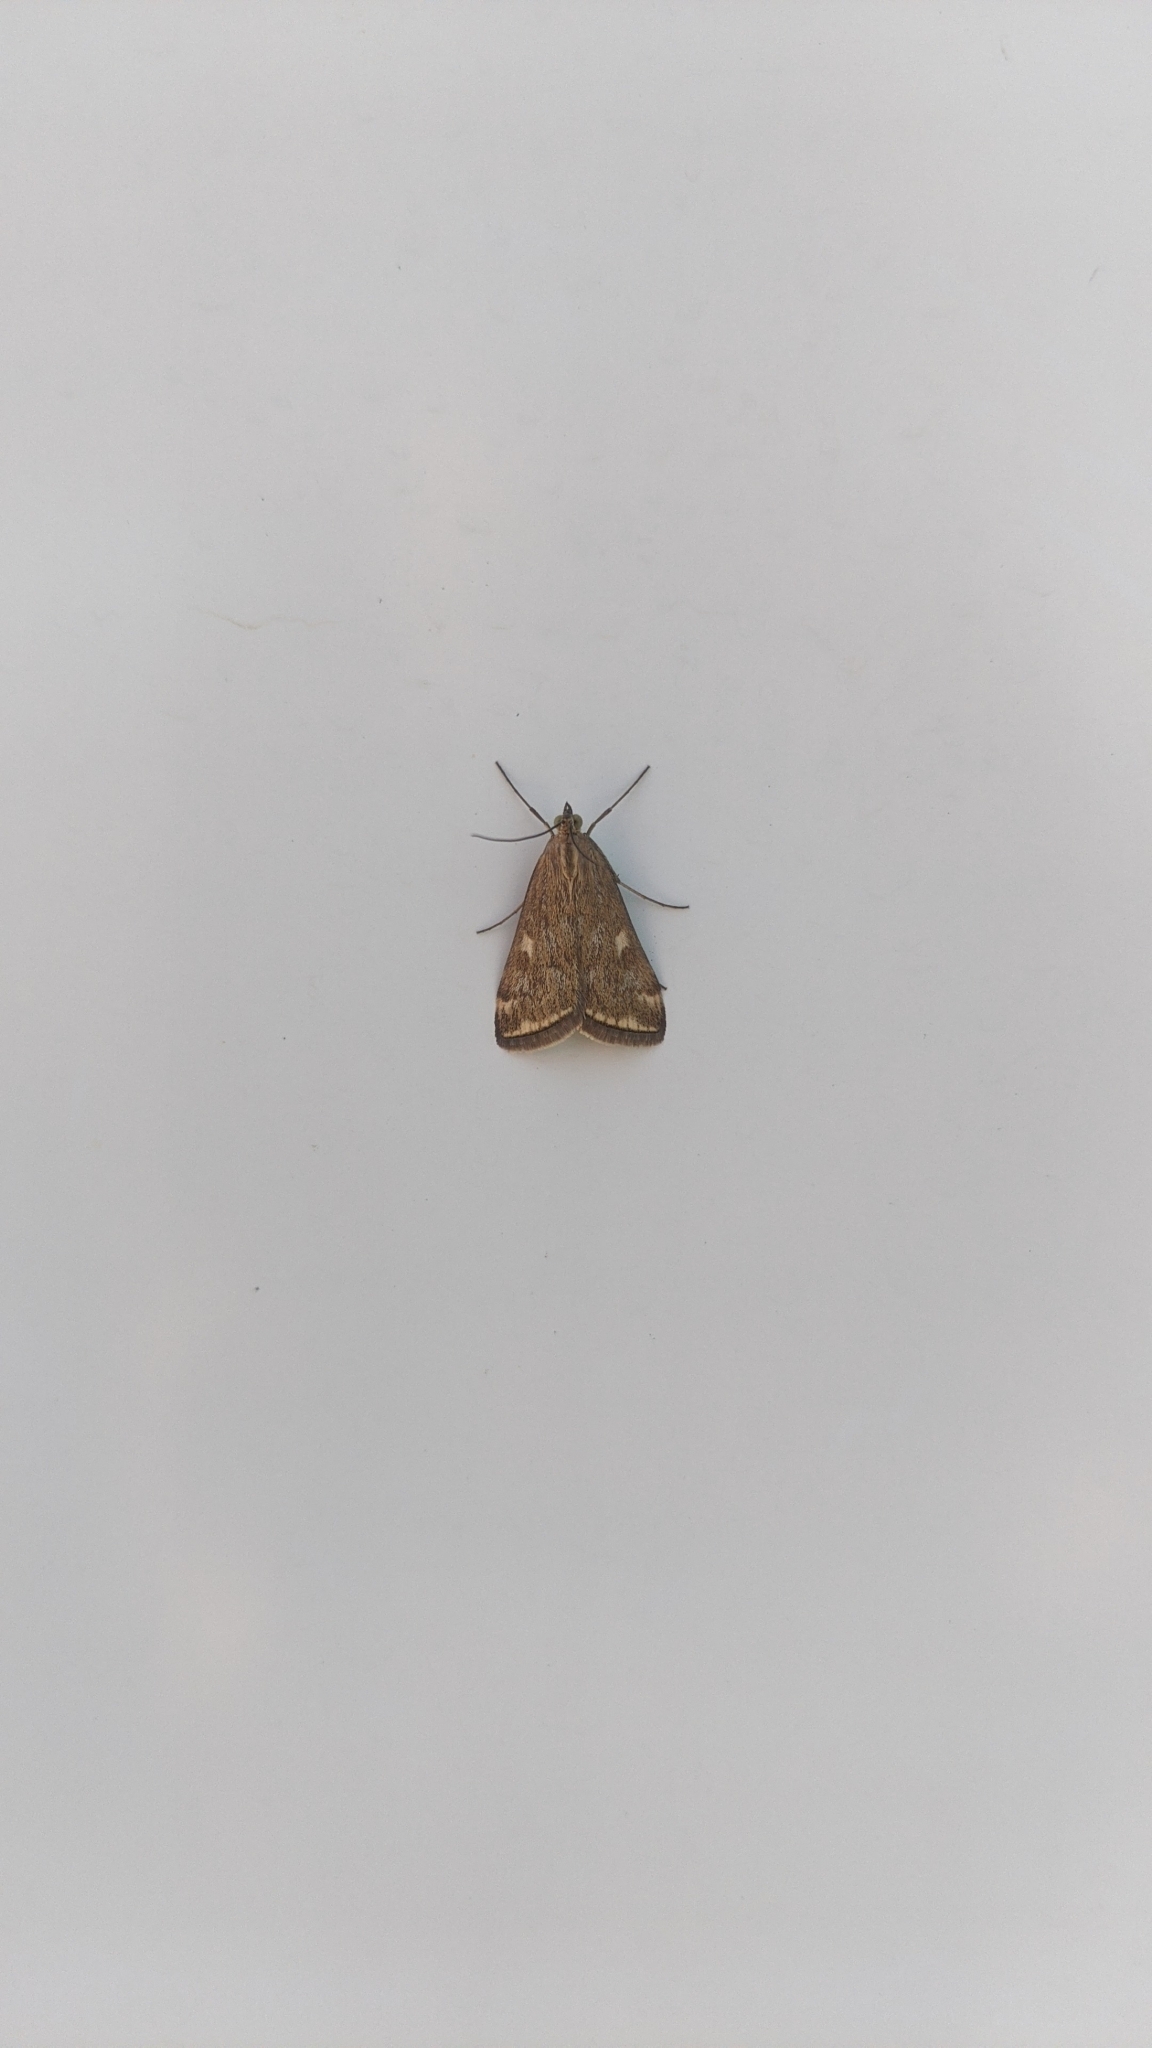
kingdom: Animalia
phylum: Arthropoda
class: Insecta
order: Lepidoptera
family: Crambidae
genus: Loxostege
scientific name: Loxostege sticticalis
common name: Crambid moth
